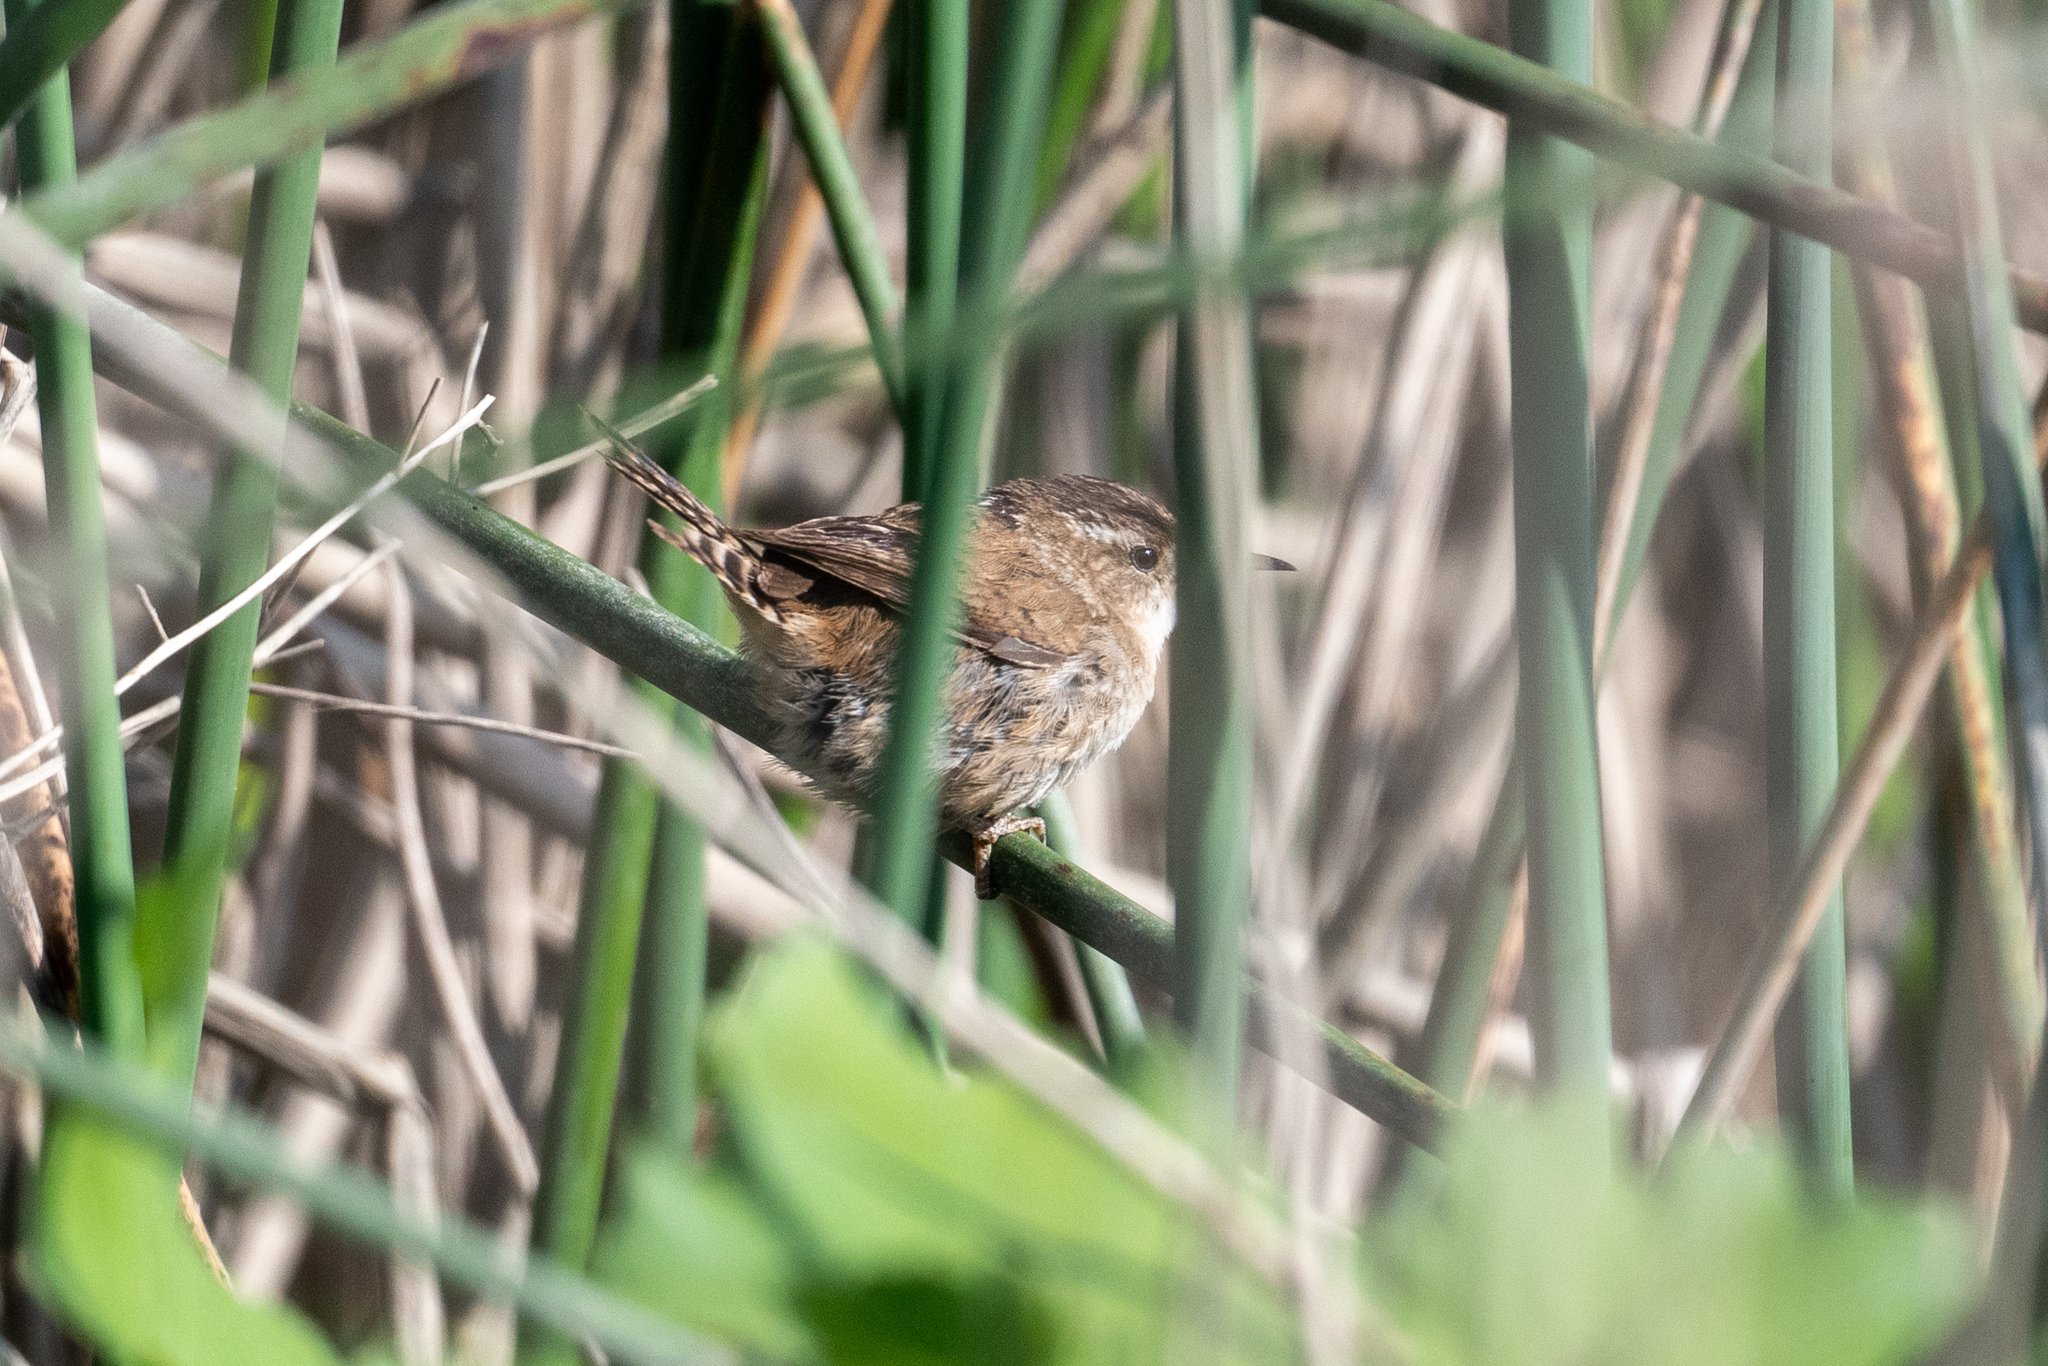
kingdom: Animalia
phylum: Chordata
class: Aves
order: Passeriformes
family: Troglodytidae
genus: Cistothorus
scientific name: Cistothorus palustris
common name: Marsh wren
